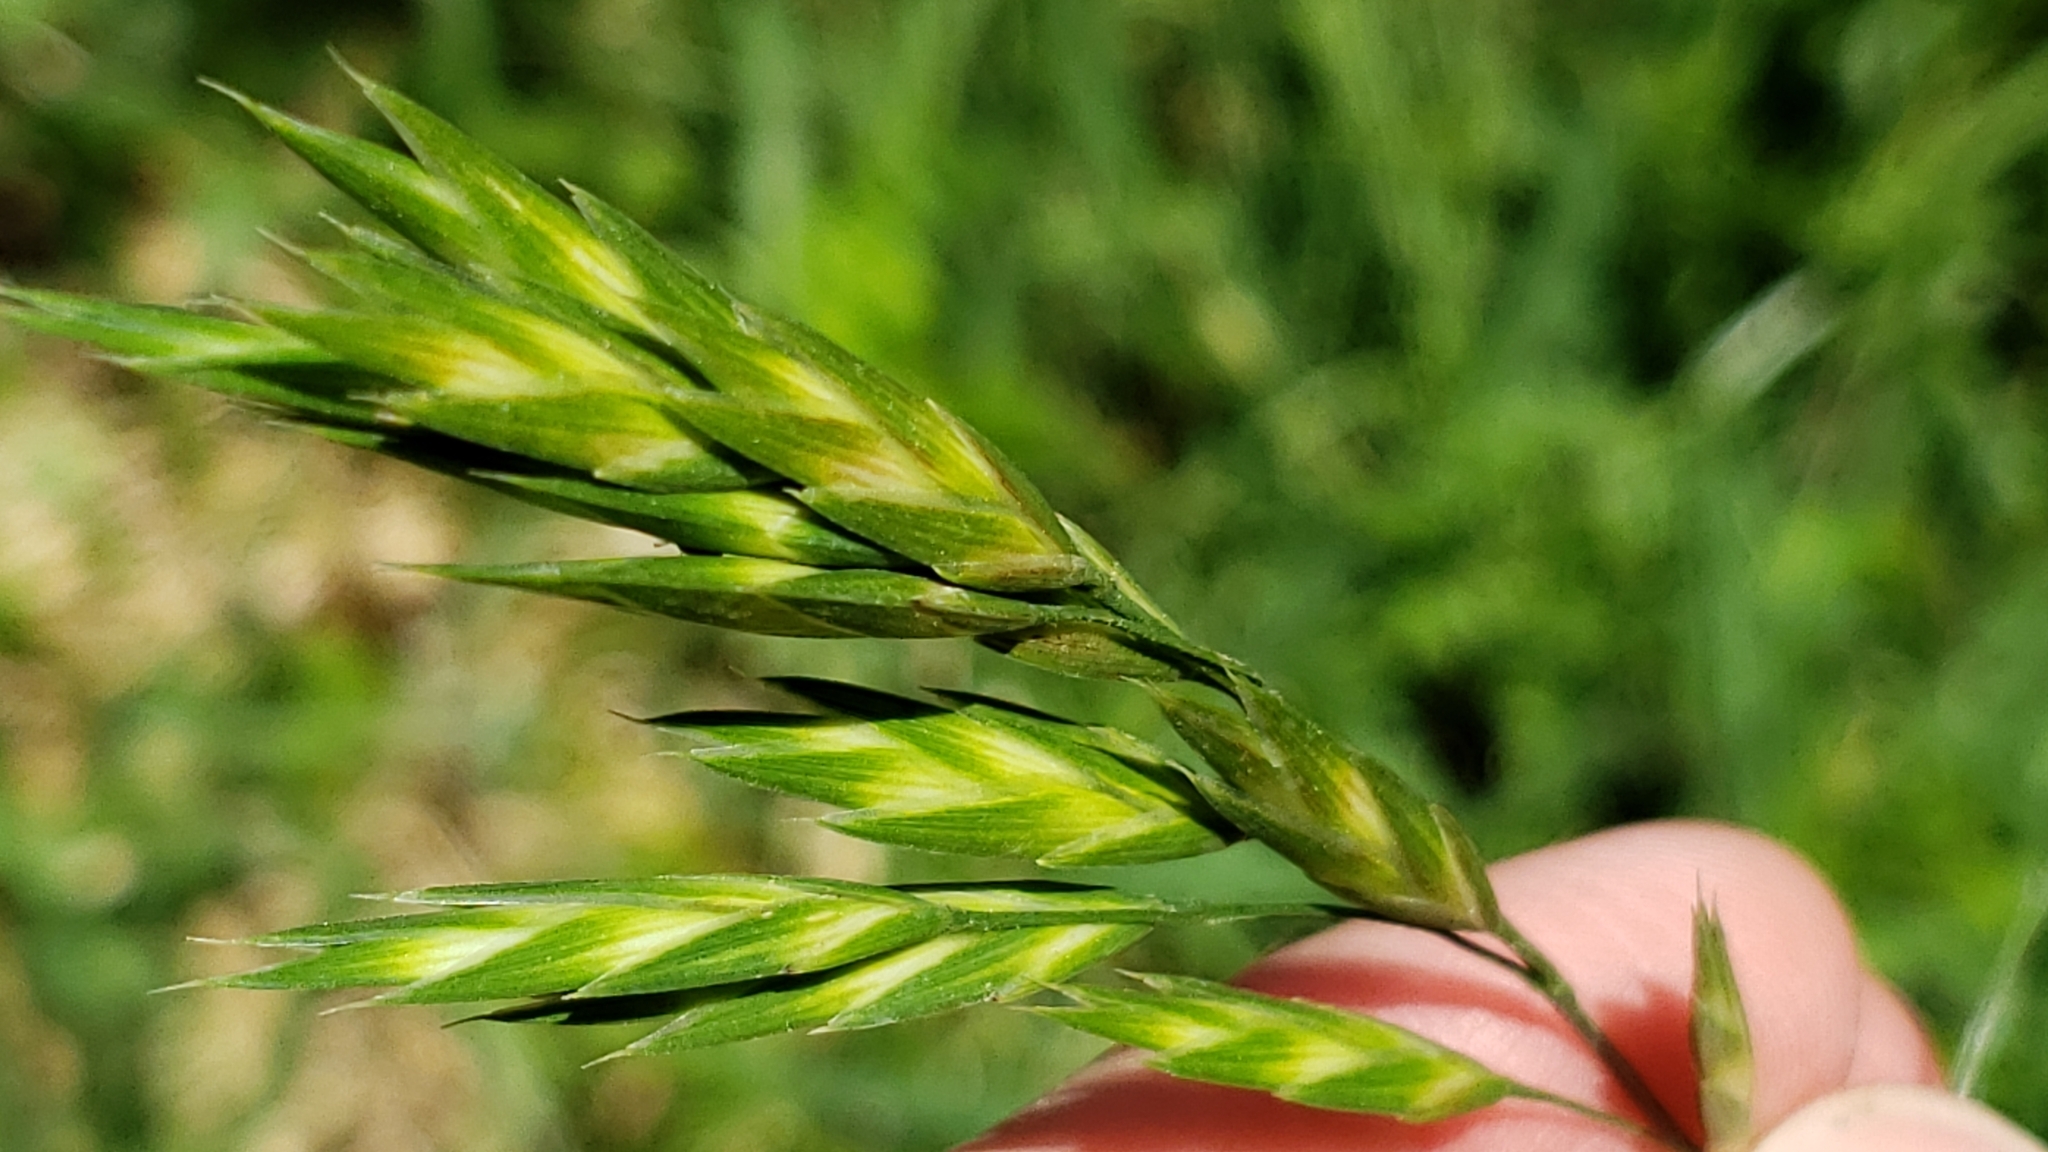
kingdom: Plantae
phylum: Tracheophyta
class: Liliopsida
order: Poales
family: Poaceae
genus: Bromus
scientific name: Bromus catharticus
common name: Rescuegrass
